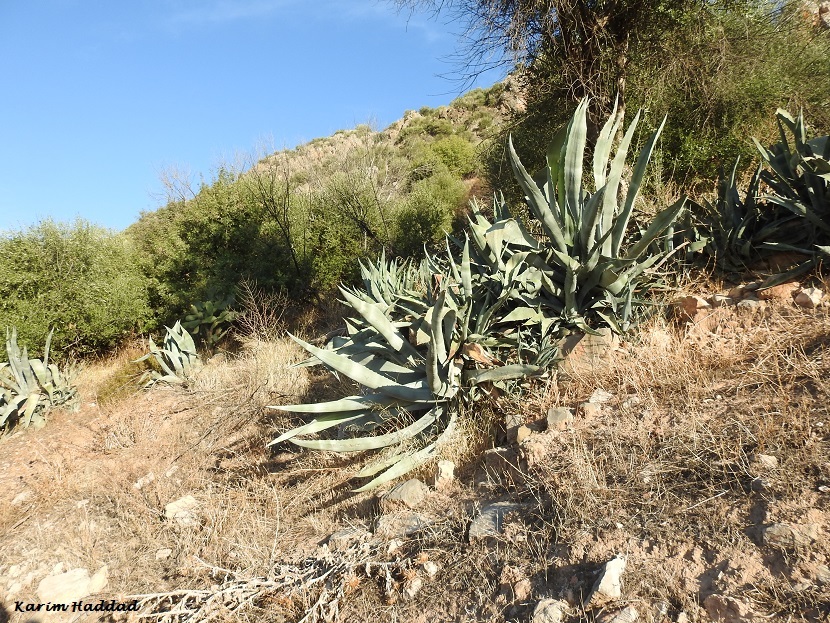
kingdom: Plantae
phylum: Tracheophyta
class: Liliopsida
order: Asparagales
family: Asparagaceae
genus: Agave
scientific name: Agave americana
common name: Centuryplant
